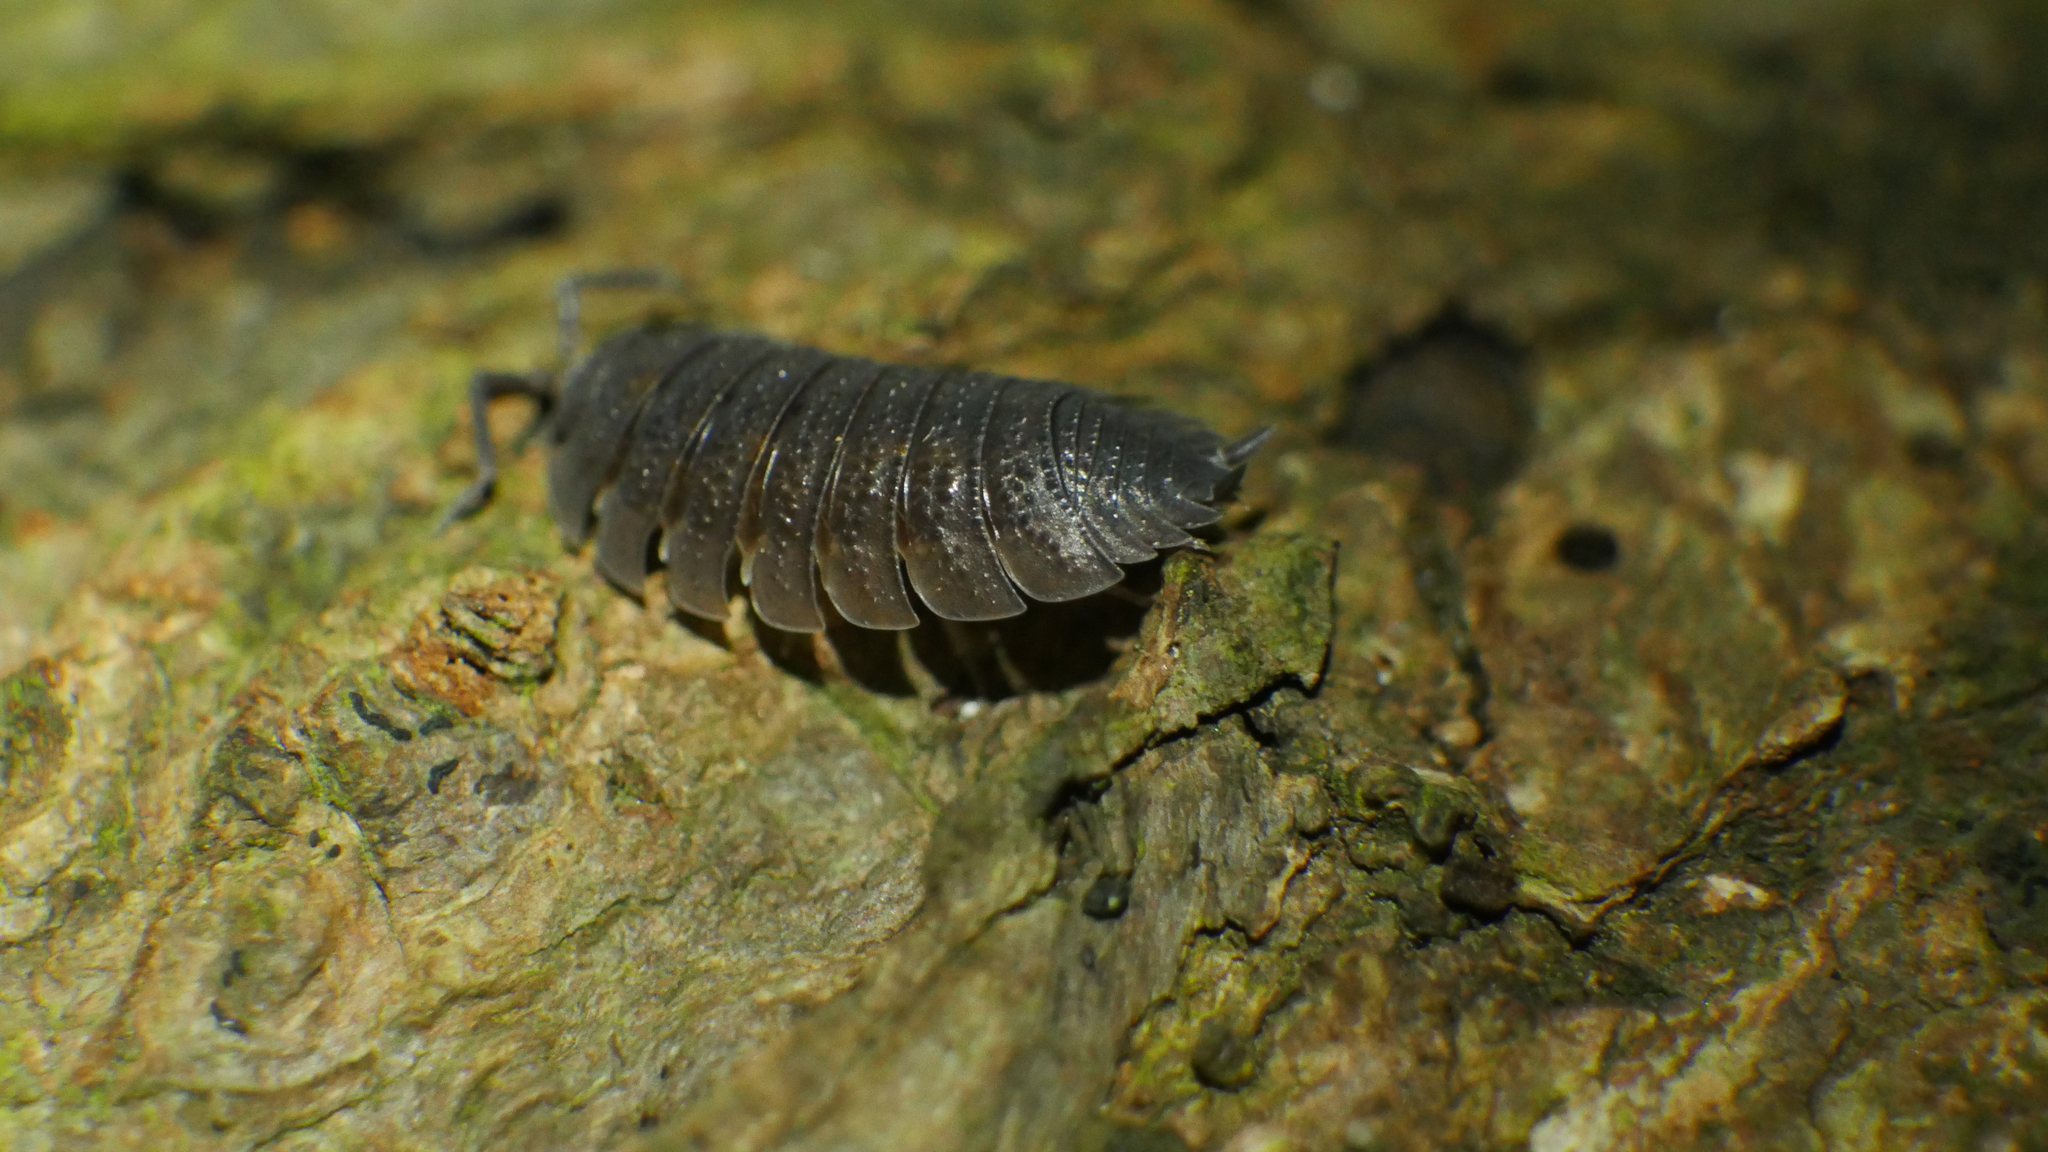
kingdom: Animalia
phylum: Arthropoda
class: Malacostraca
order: Isopoda
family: Porcellionidae
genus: Porcellio
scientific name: Porcellio scaber
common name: Common rough woodlouse
